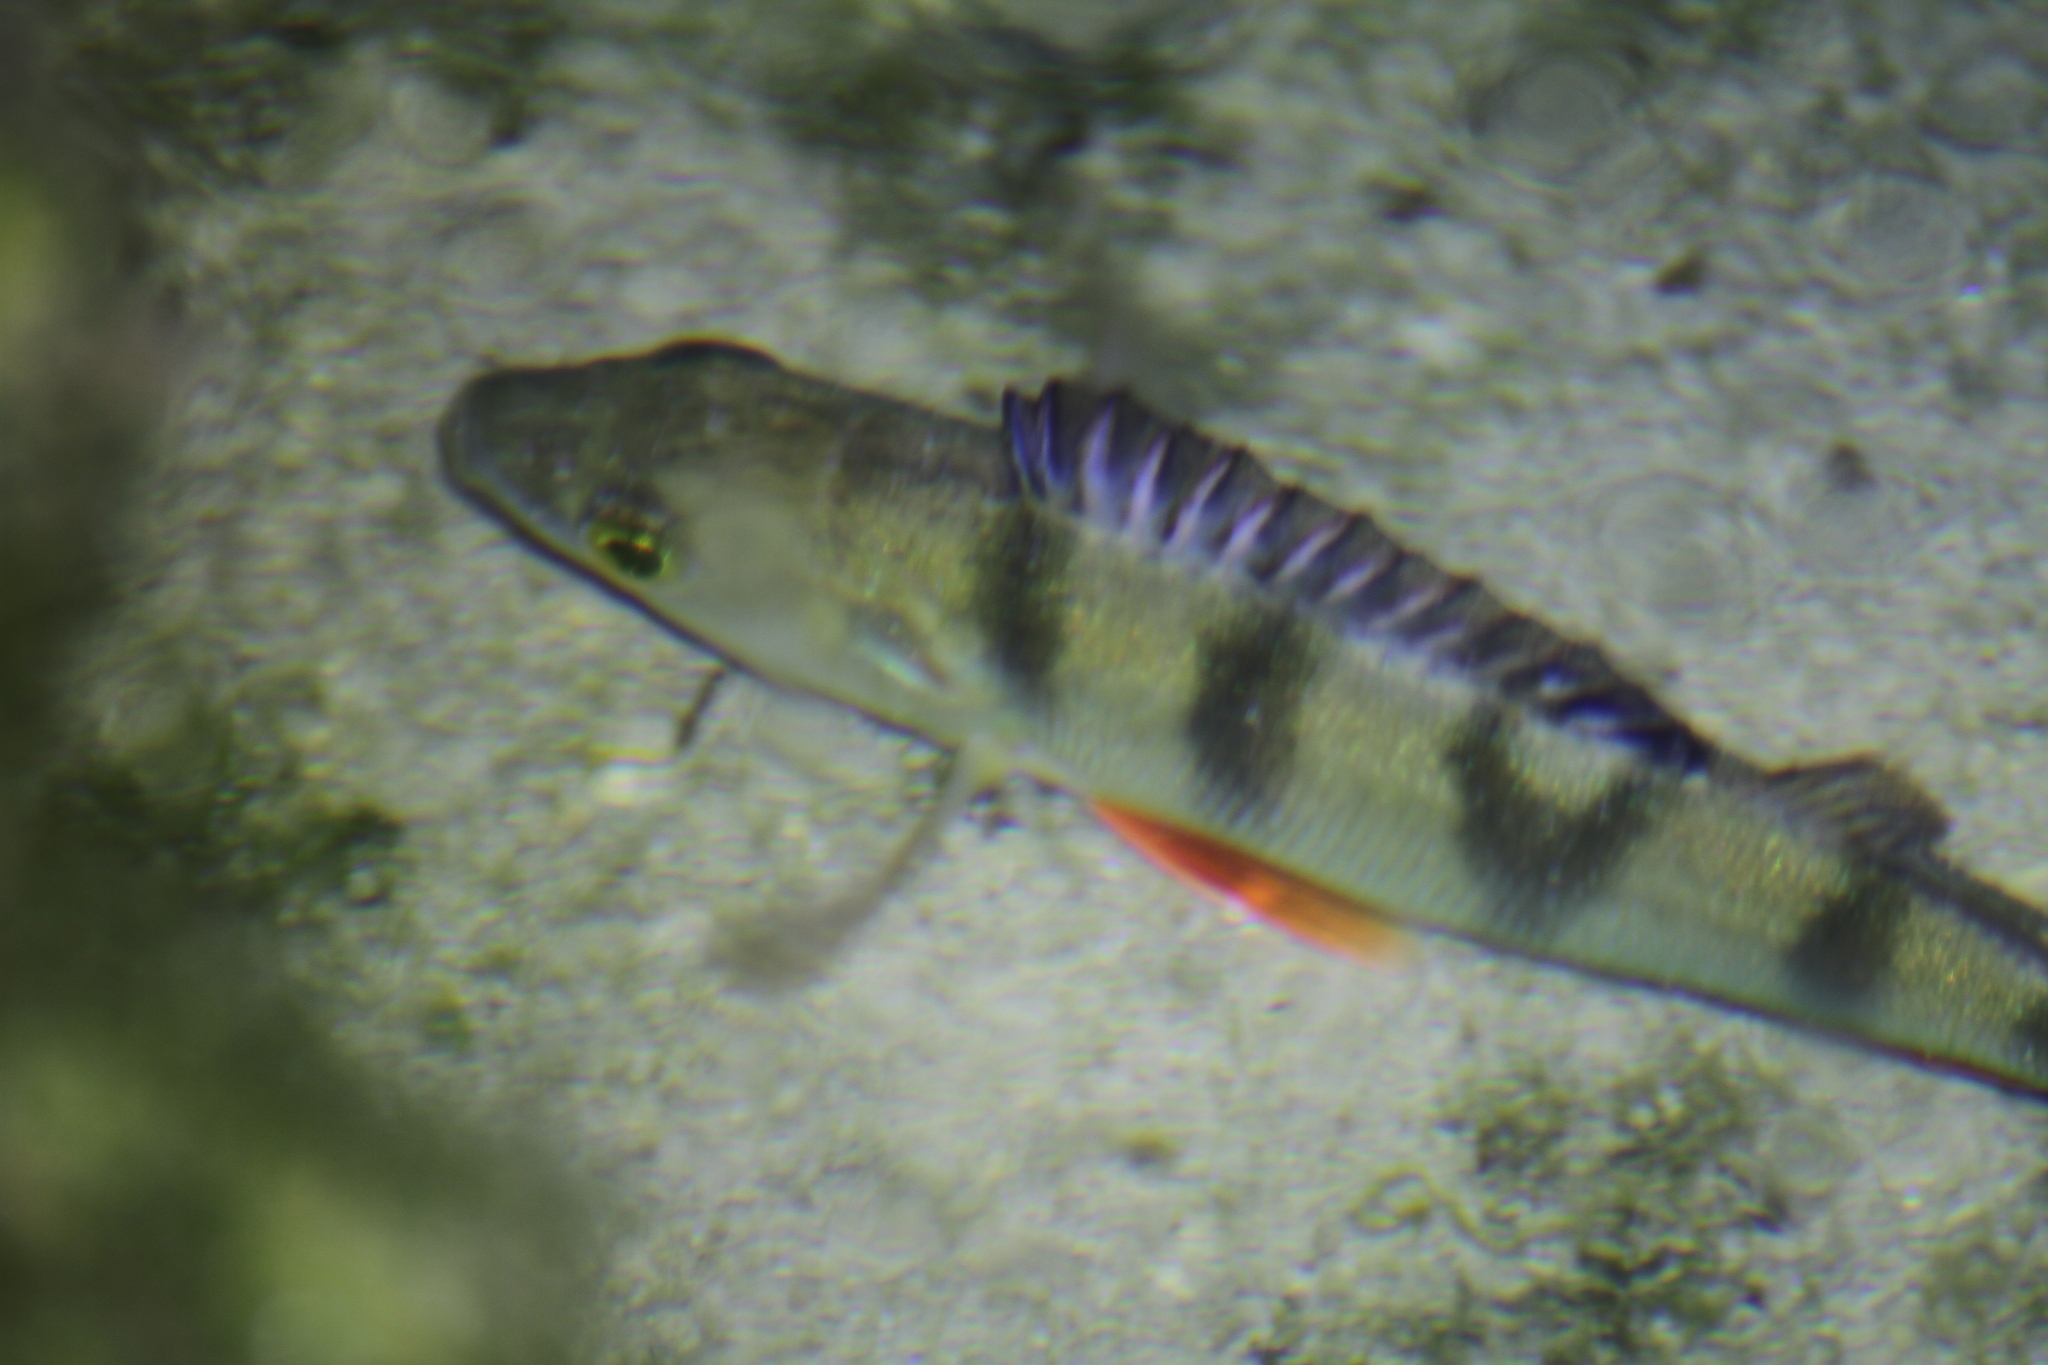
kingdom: Animalia
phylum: Chordata
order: Perciformes
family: Percidae
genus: Perca
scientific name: Perca fluviatilis
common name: Perch
